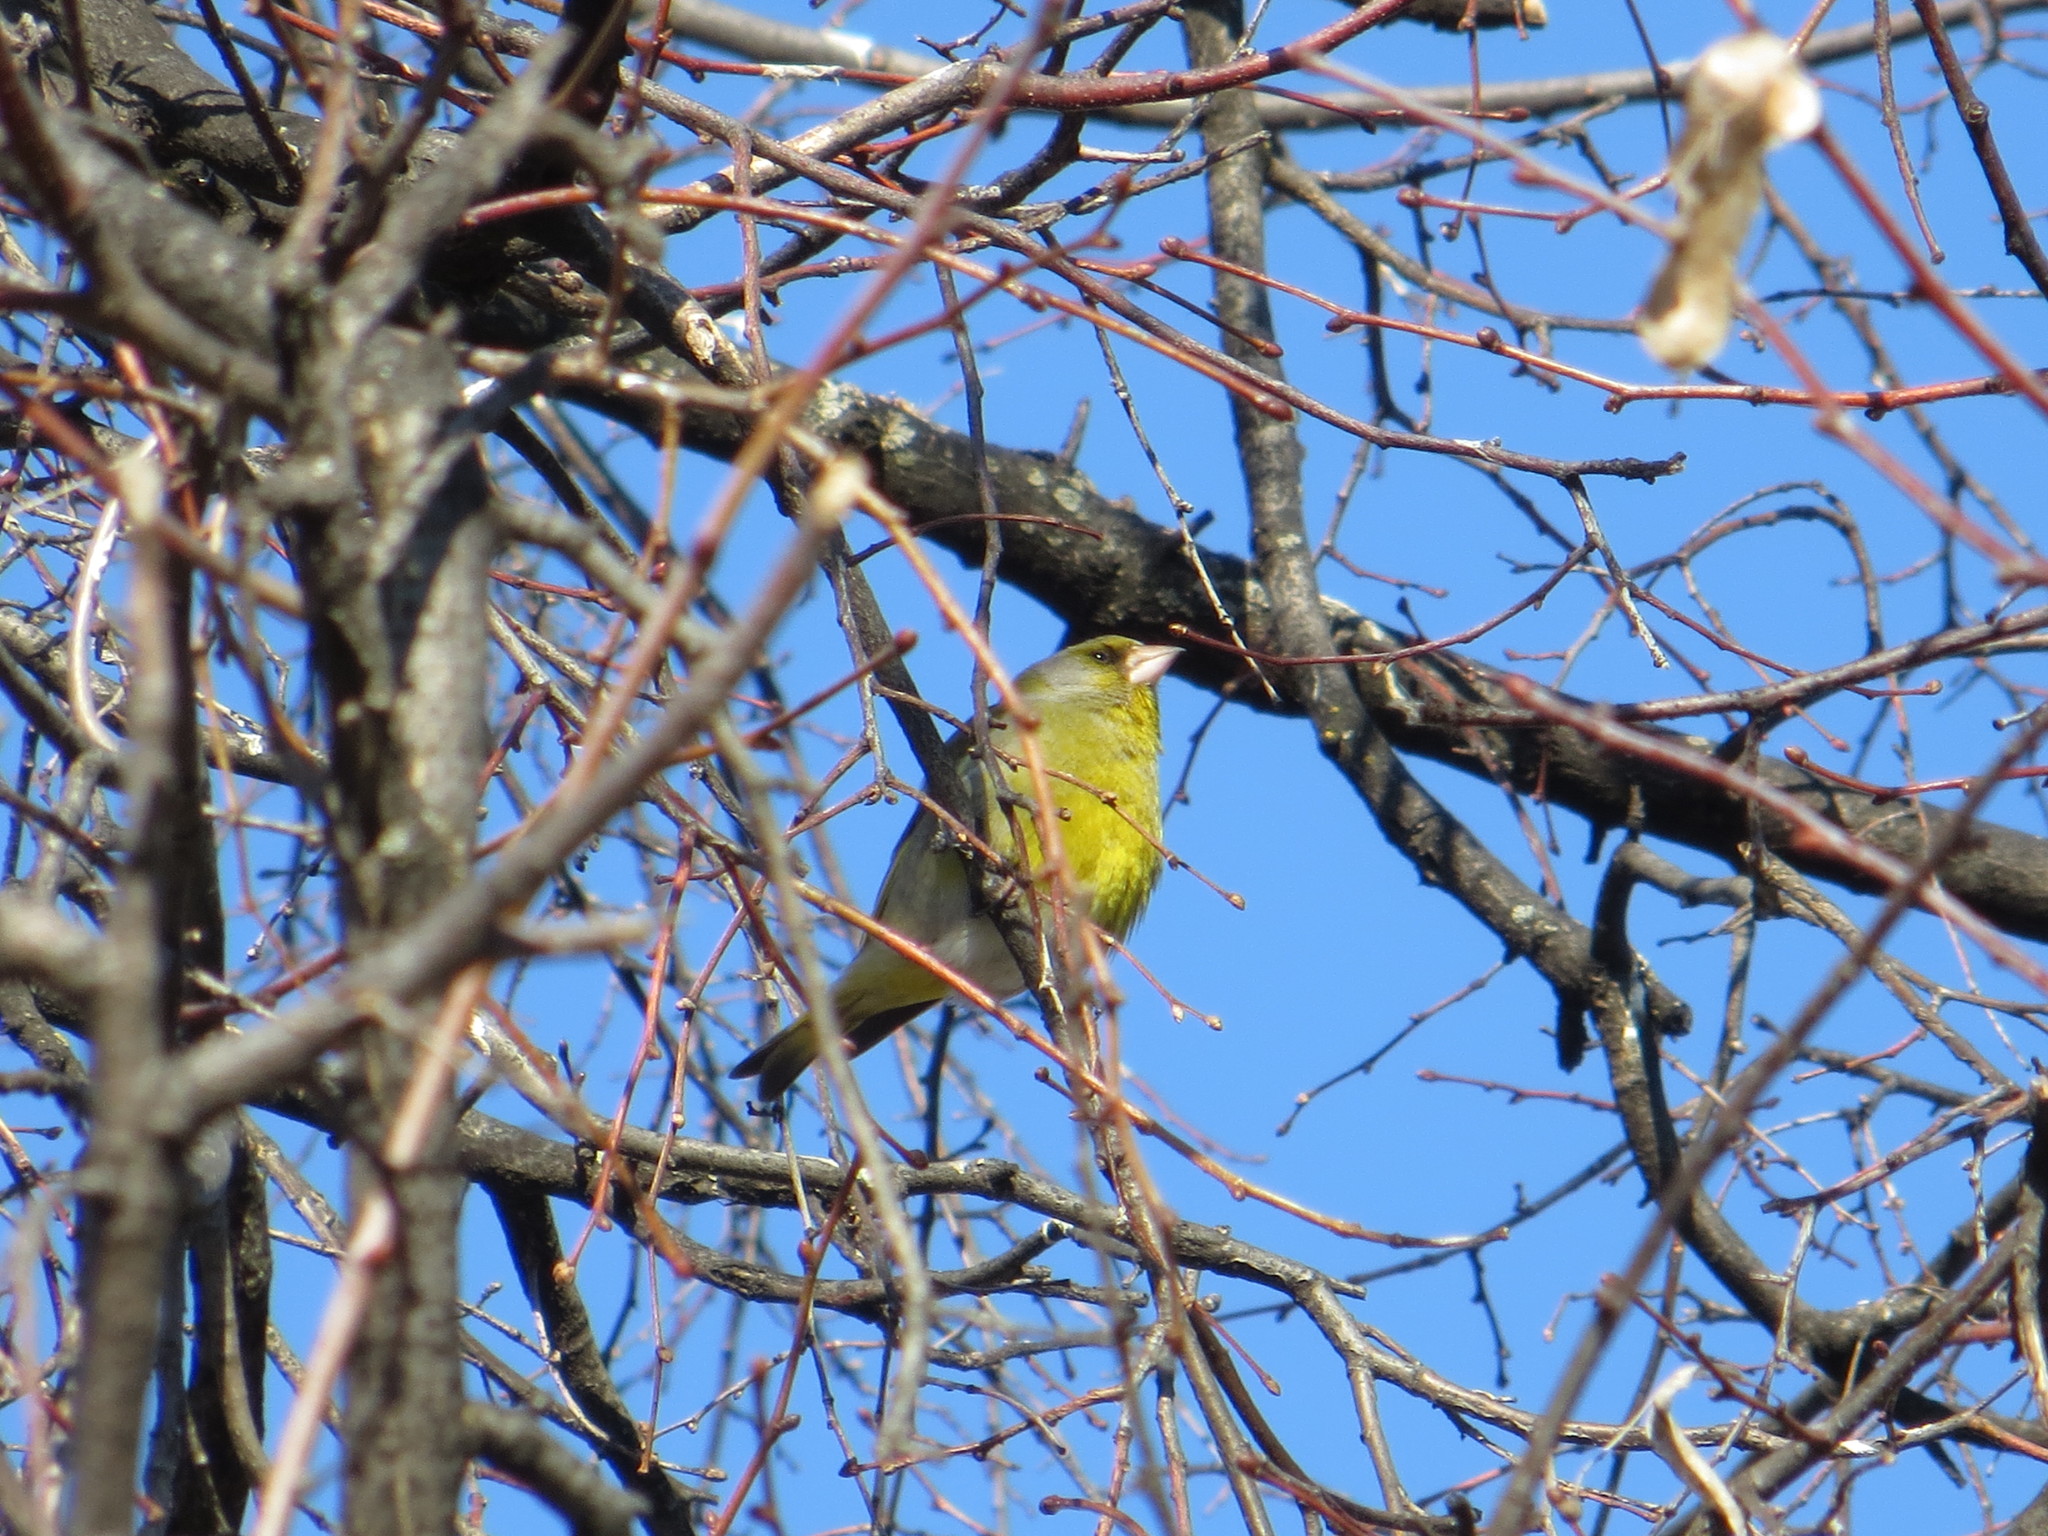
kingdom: Plantae
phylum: Tracheophyta
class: Liliopsida
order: Poales
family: Poaceae
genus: Chloris
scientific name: Chloris chloris
